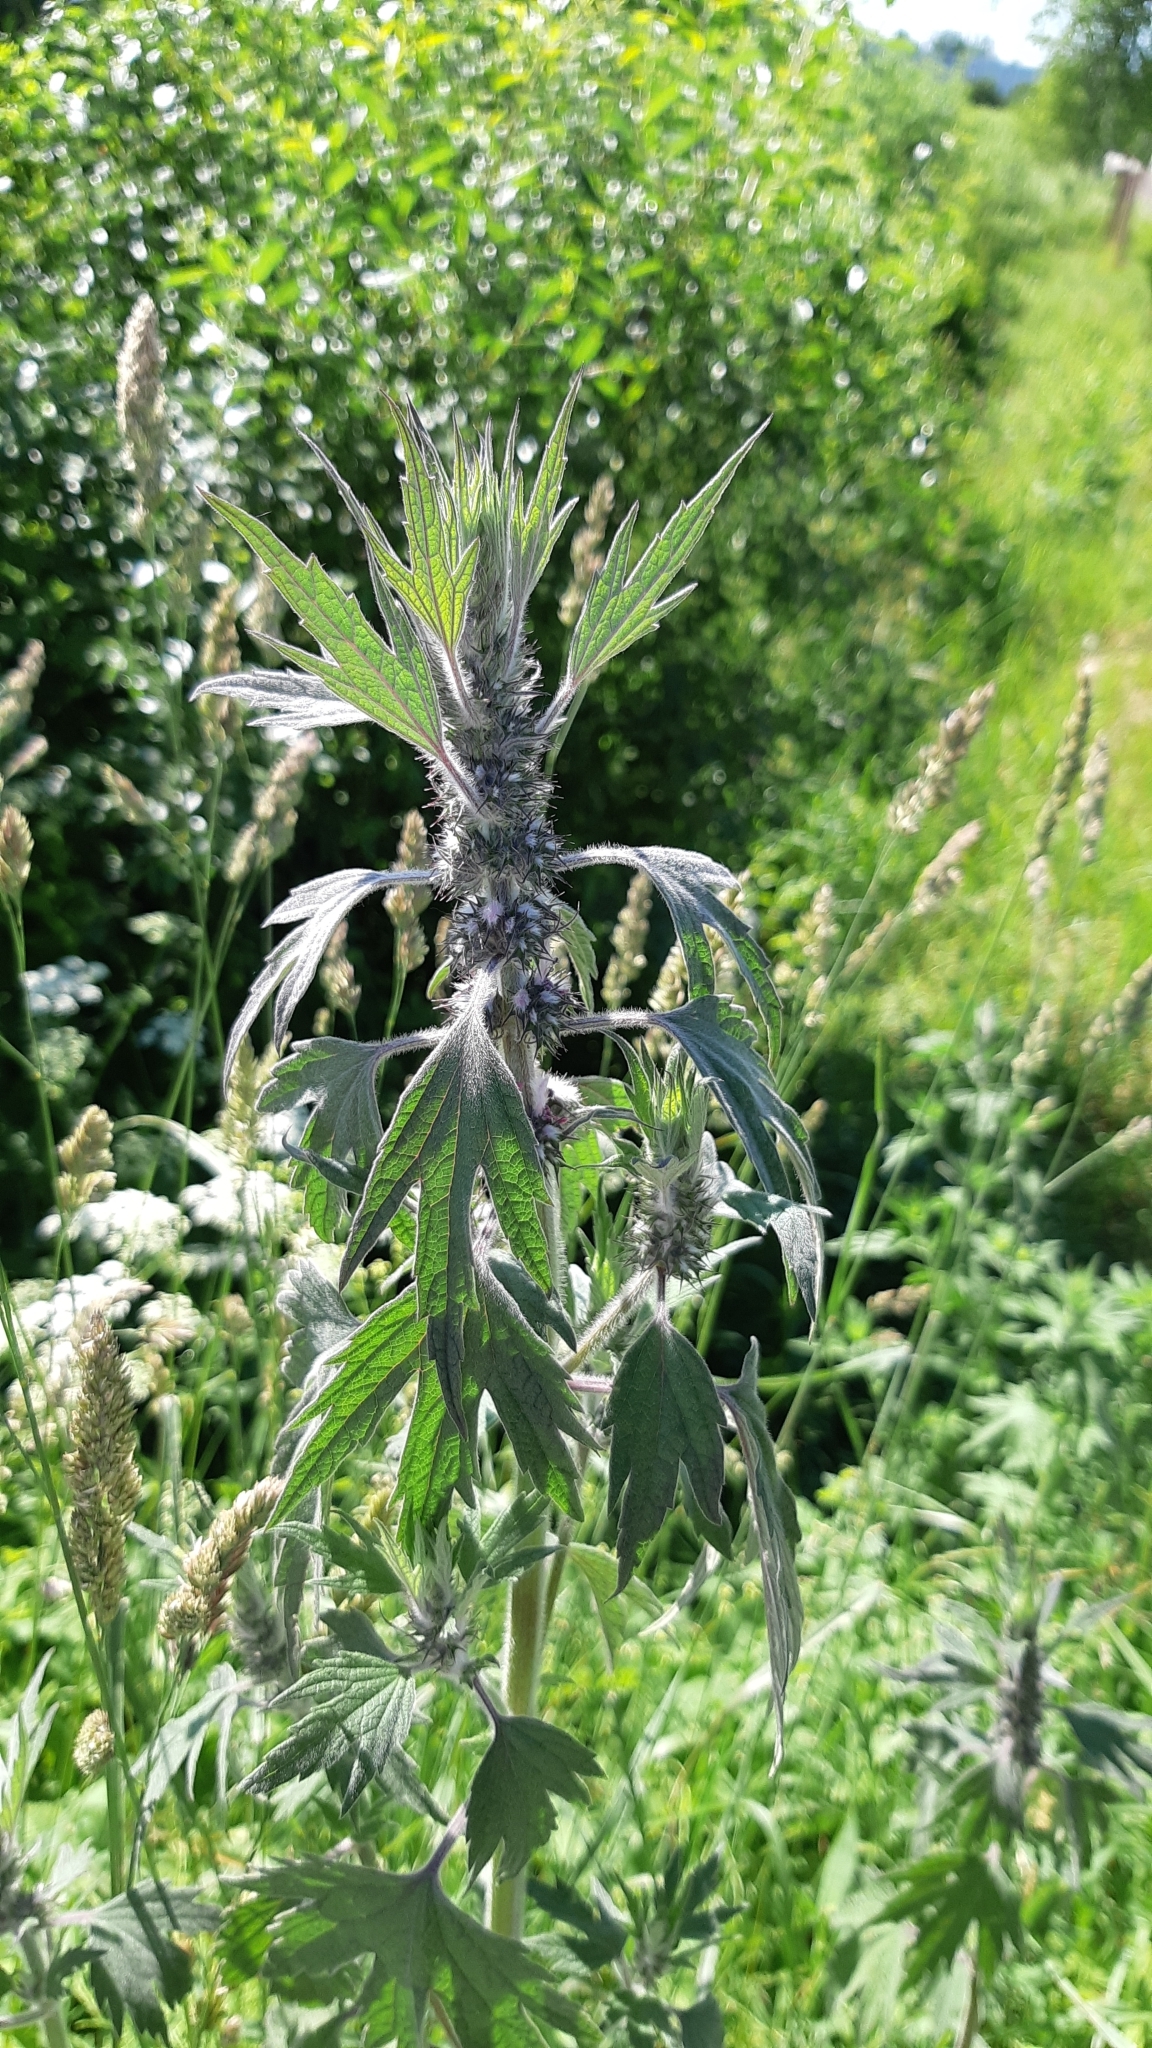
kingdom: Plantae
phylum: Tracheophyta
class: Magnoliopsida
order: Lamiales
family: Lamiaceae
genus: Leonurus
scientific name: Leonurus quinquelobatus
